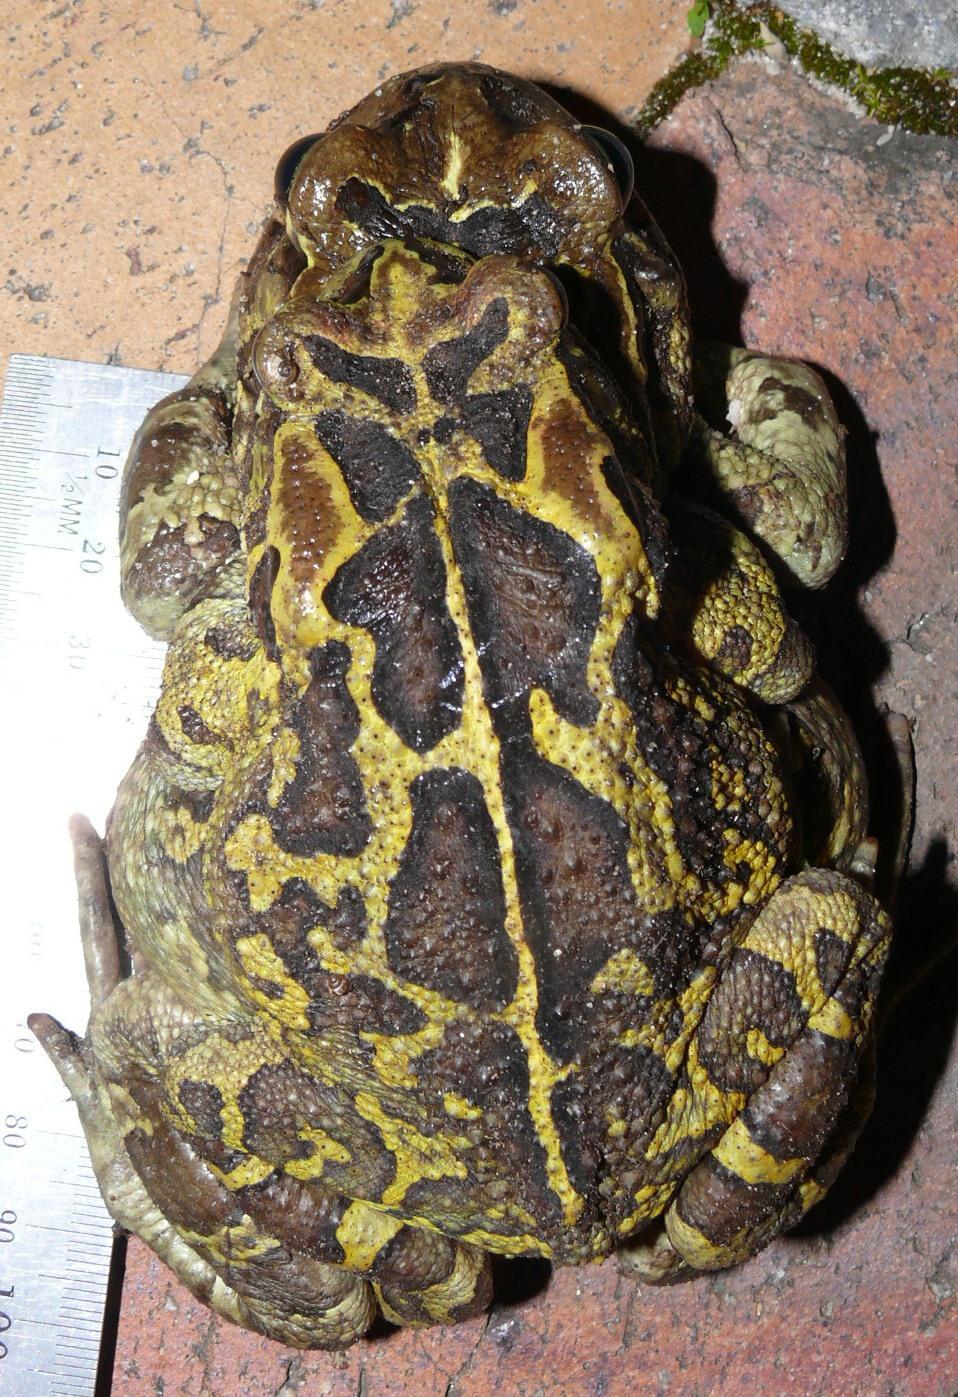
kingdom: Animalia
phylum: Chordata
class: Amphibia
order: Anura
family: Bufonidae
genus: Sclerophrys
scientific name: Sclerophrys pantherina
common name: Panther toad
